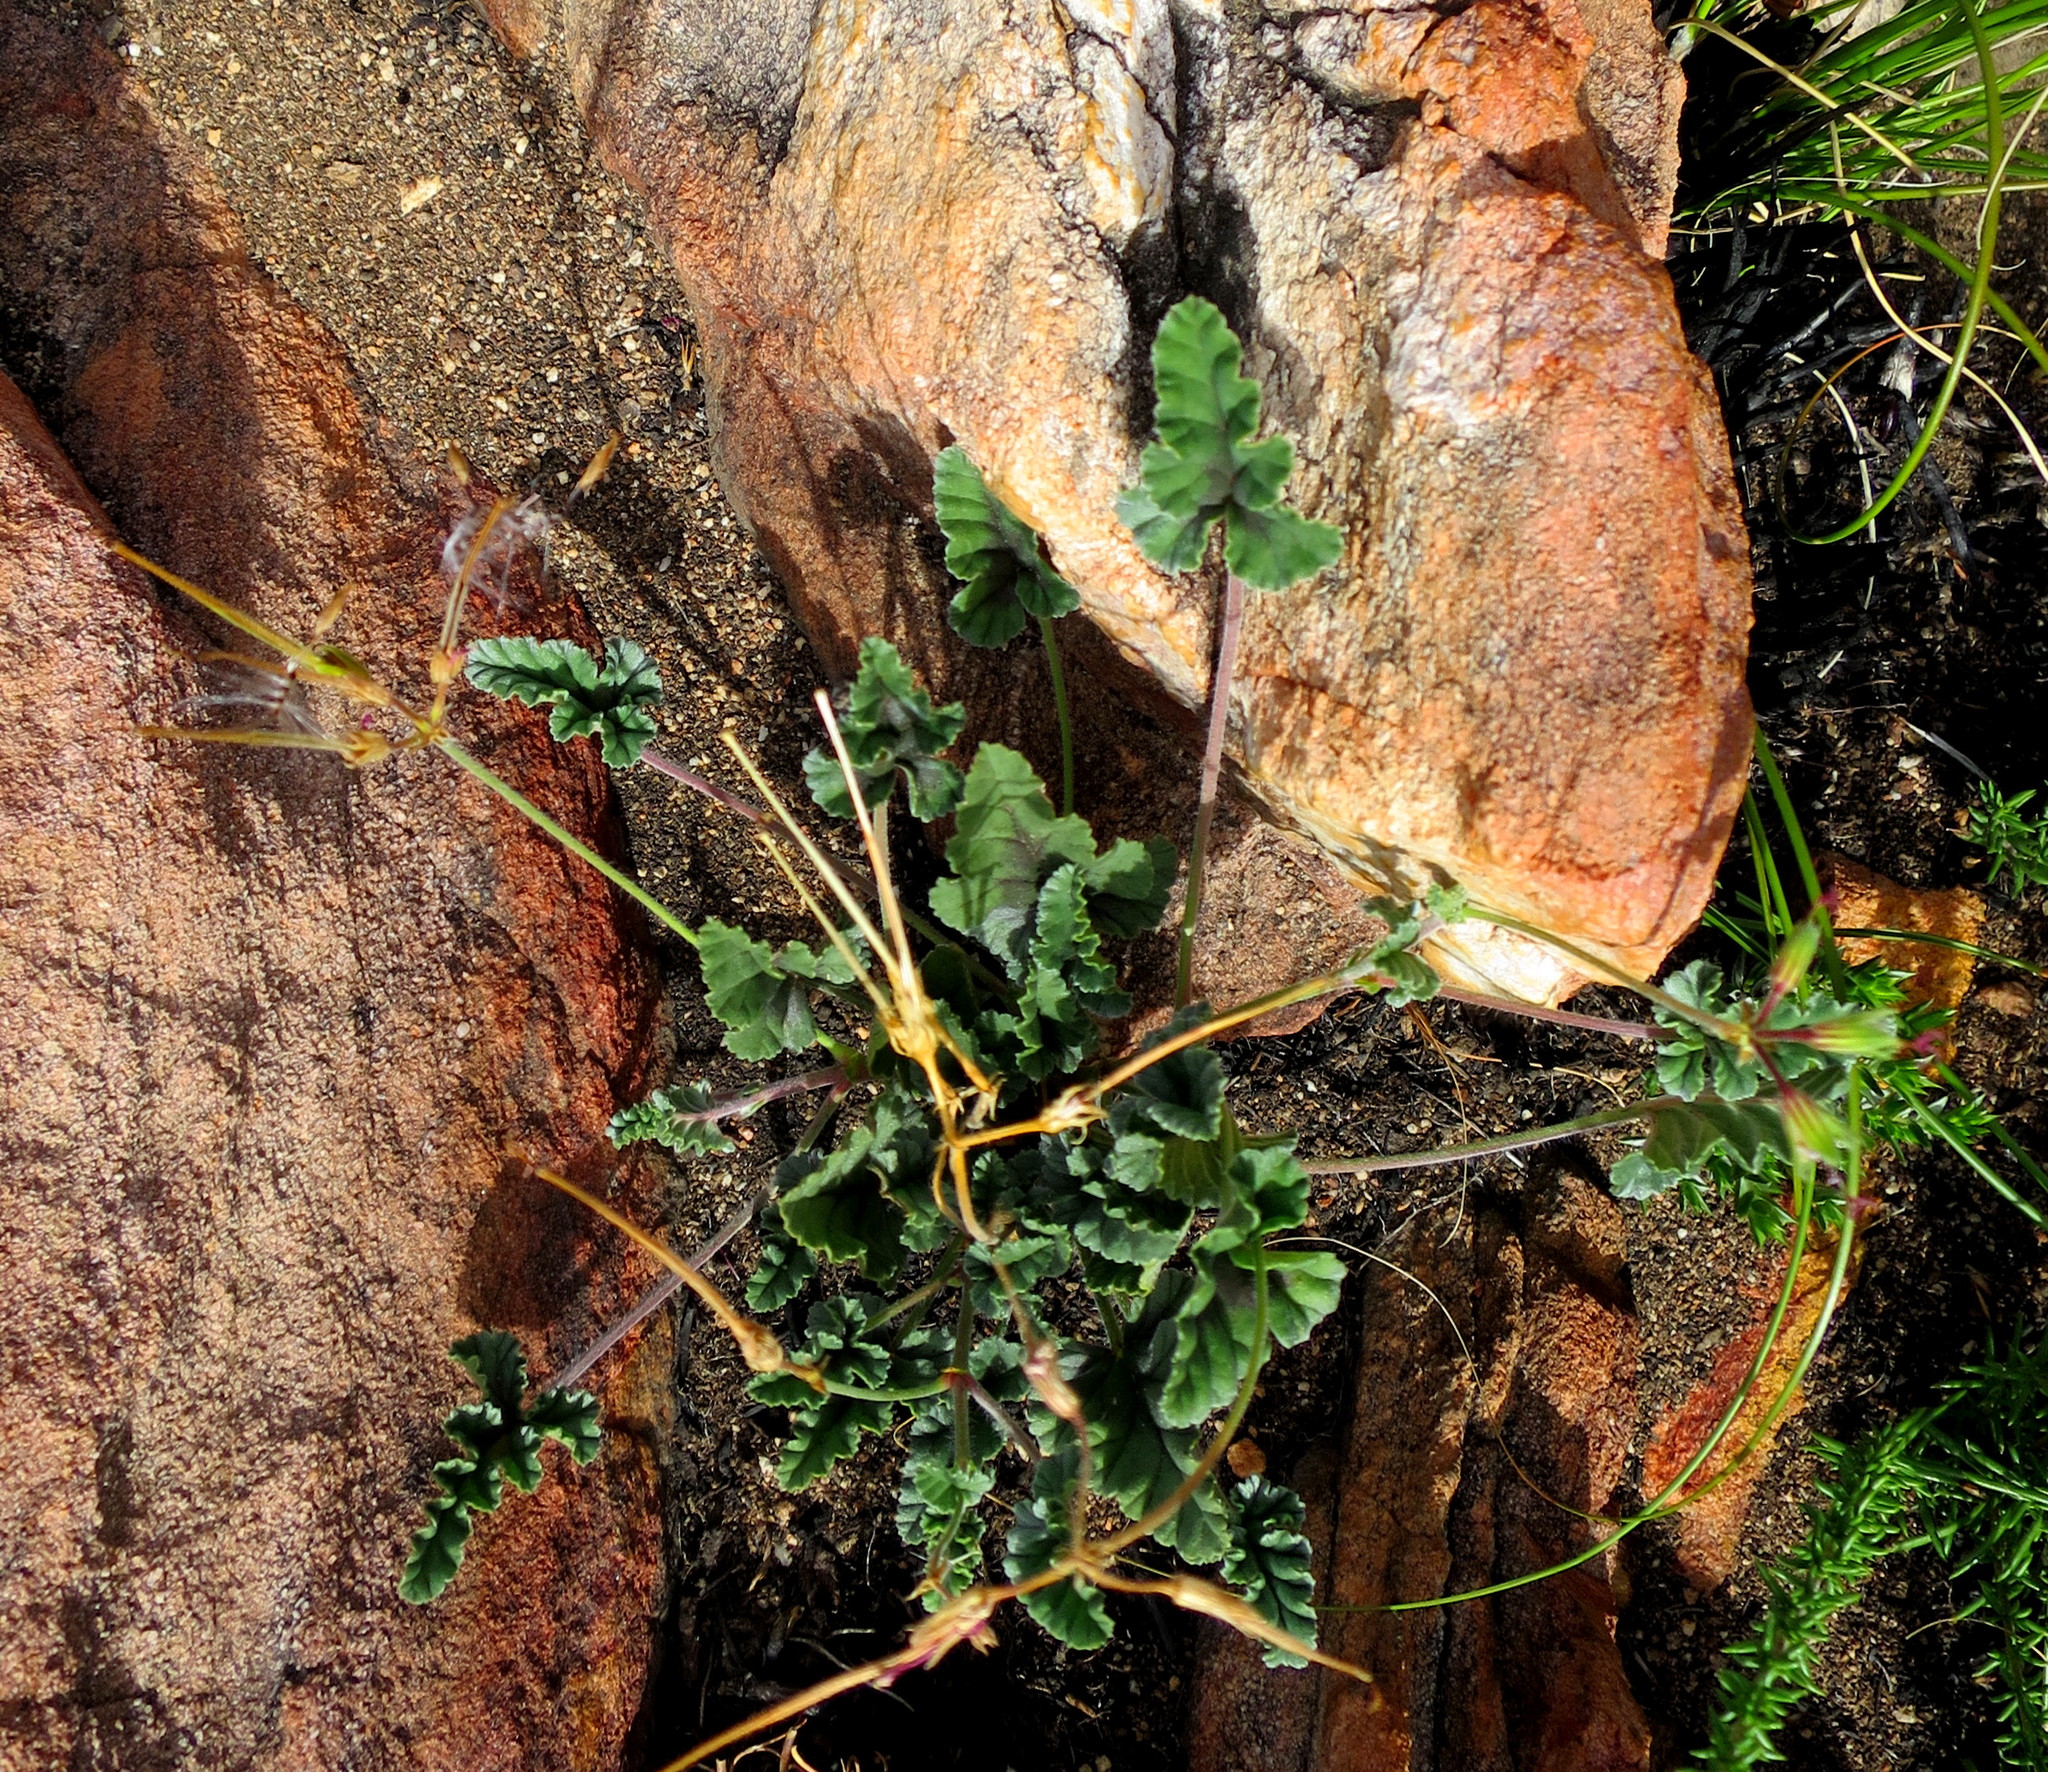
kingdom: Plantae
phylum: Tracheophyta
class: Magnoliopsida
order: Geraniales
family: Geraniaceae
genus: Pelargonium
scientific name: Pelargonium candicans
